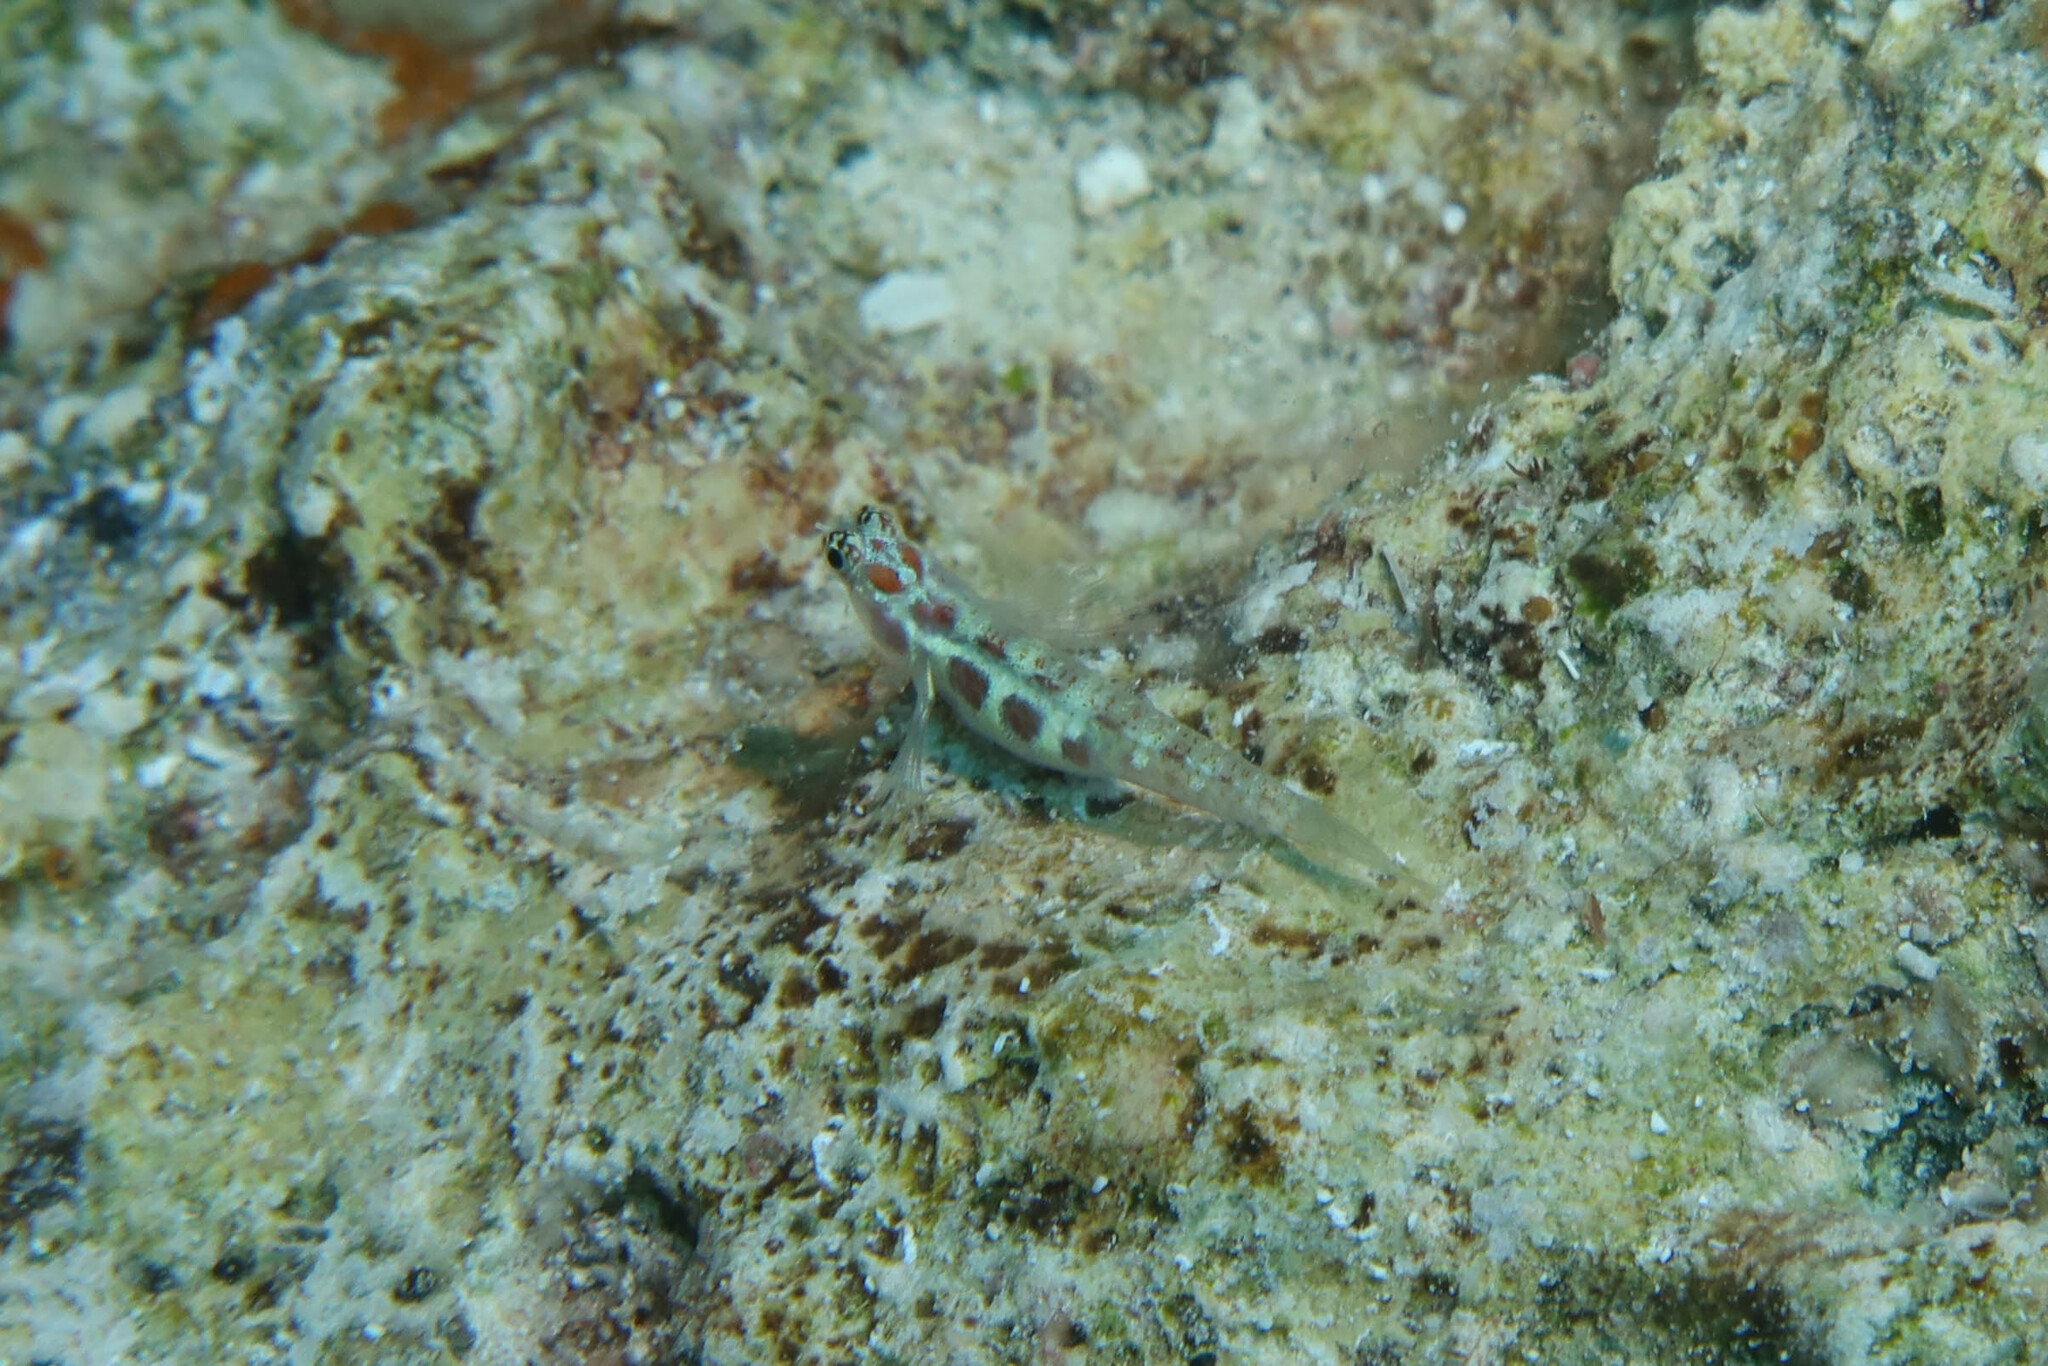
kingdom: Animalia
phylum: Chordata
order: Perciformes
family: Gobiidae
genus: Eviota
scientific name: Eviota guttata
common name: Green pygmy-goby
